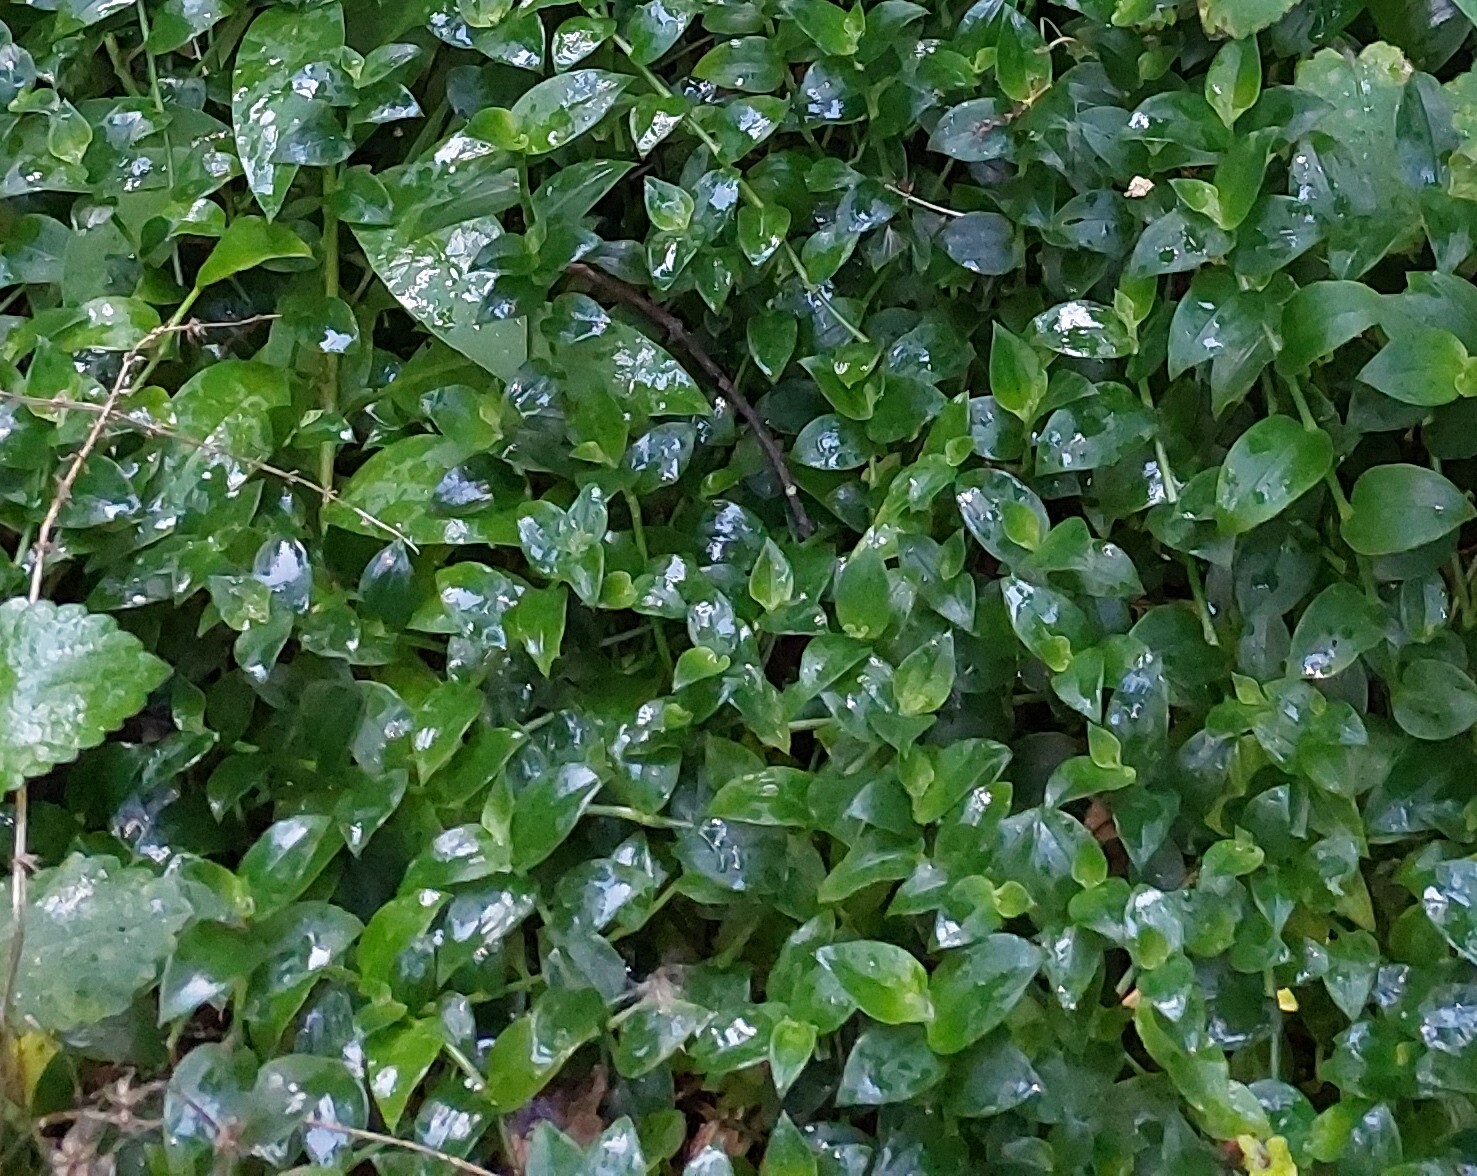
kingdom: Plantae
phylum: Tracheophyta
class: Liliopsida
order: Commelinales
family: Commelinaceae
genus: Tradescantia
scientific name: Tradescantia fluminensis
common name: Wandering-jew
